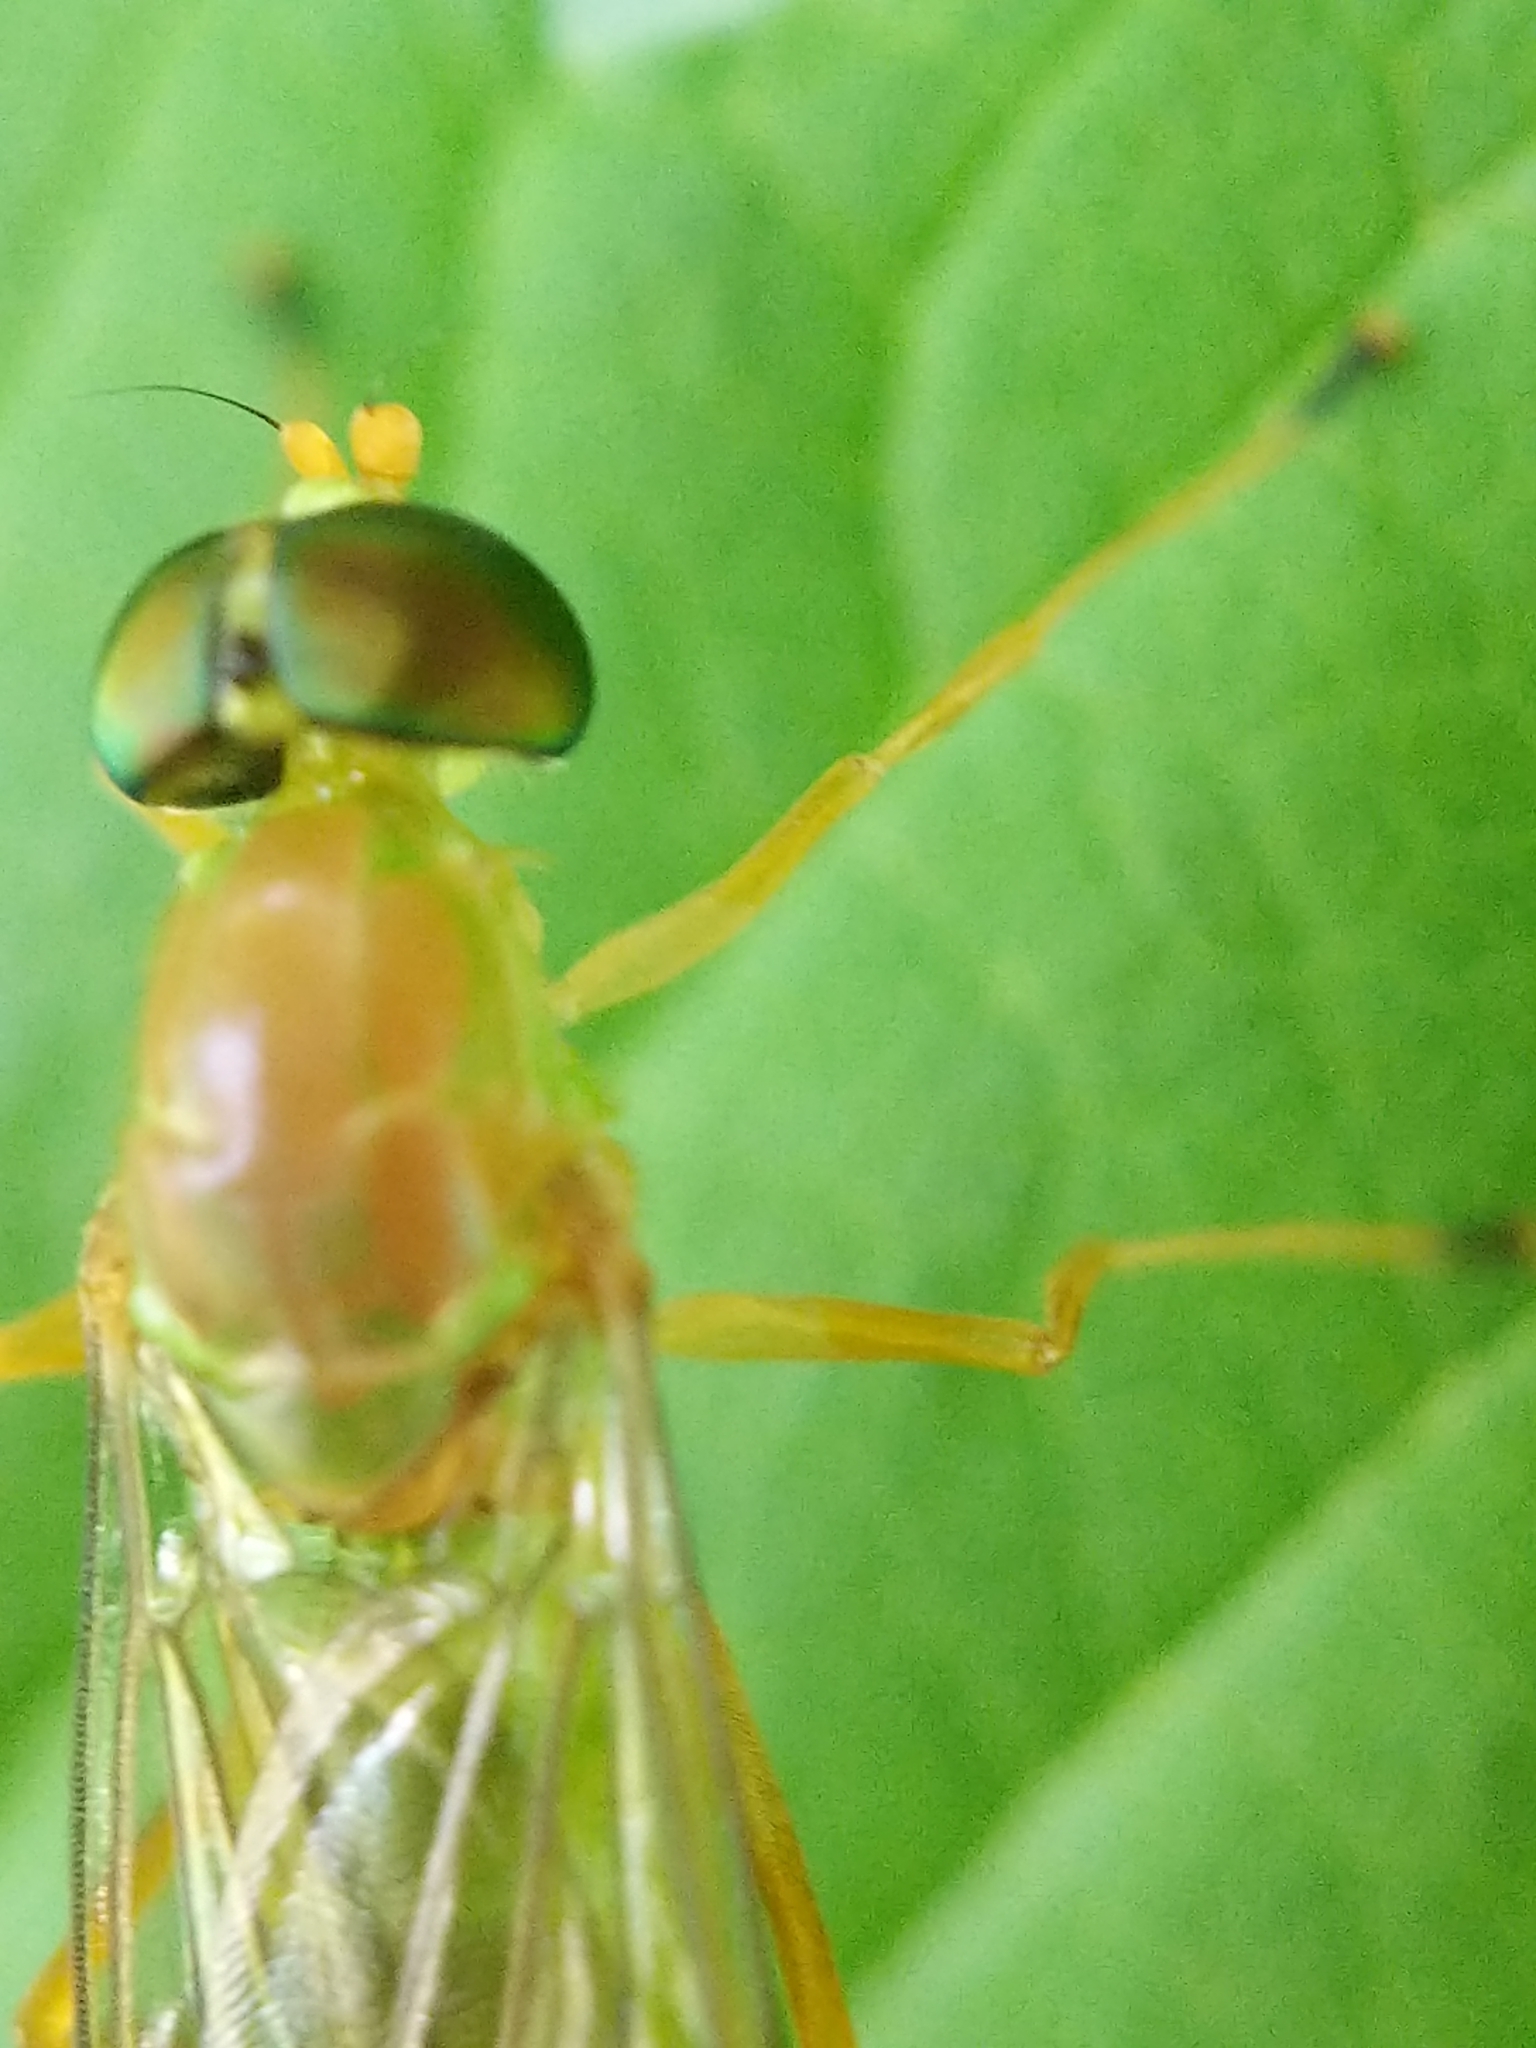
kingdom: Animalia
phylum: Arthropoda
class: Insecta
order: Diptera
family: Stratiomyidae
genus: Ptecticus
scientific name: Ptecticus trivittatus
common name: Compost fly
